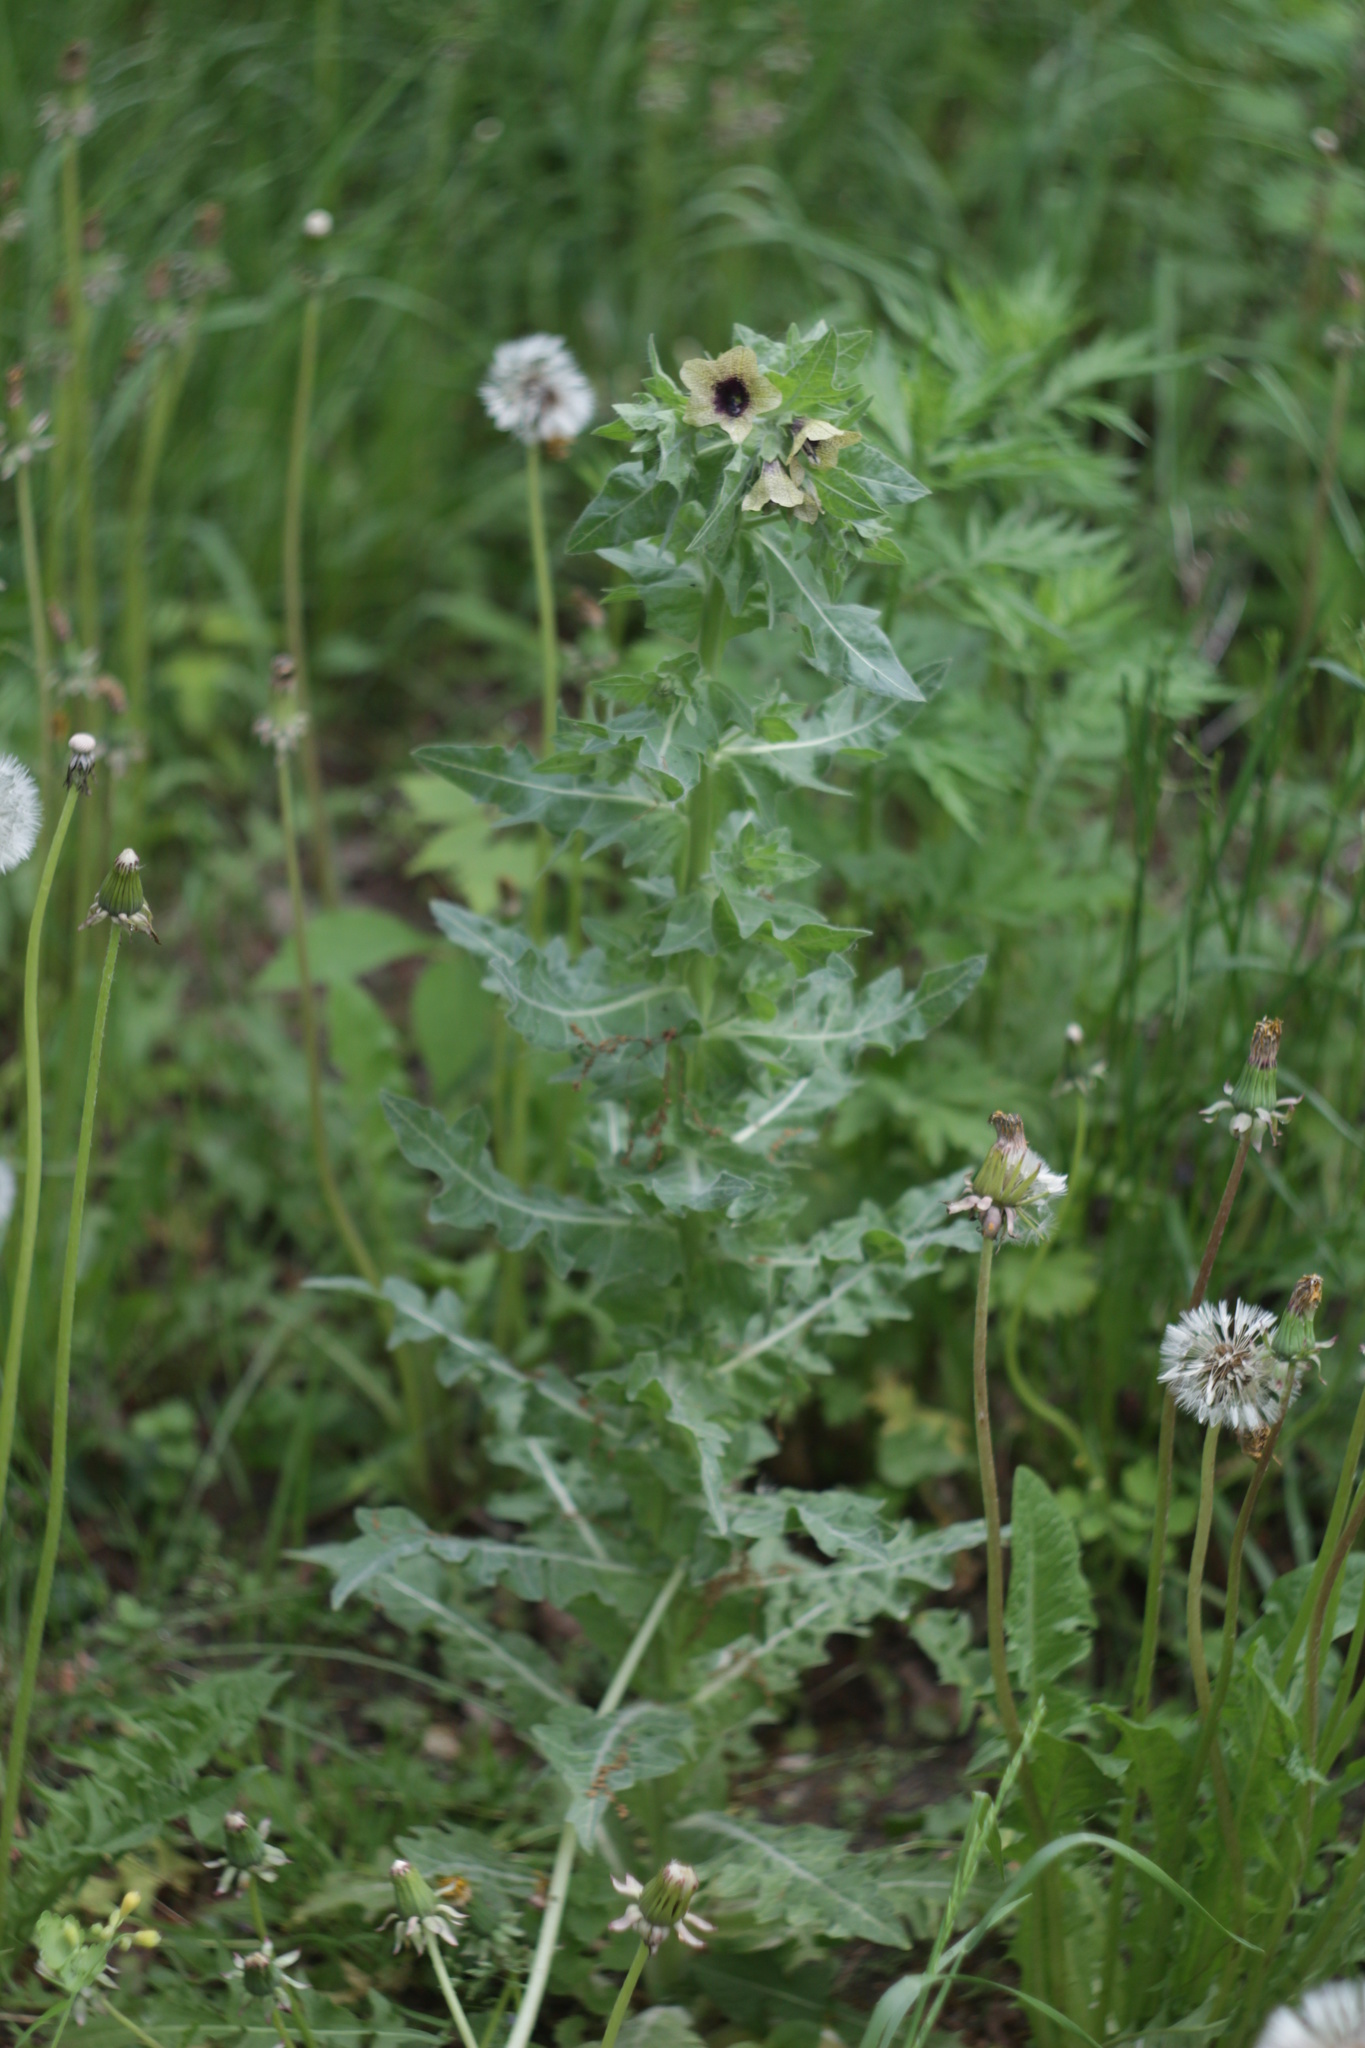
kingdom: Plantae
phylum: Tracheophyta
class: Magnoliopsida
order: Solanales
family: Solanaceae
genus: Hyoscyamus
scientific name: Hyoscyamus niger
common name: Henbane
